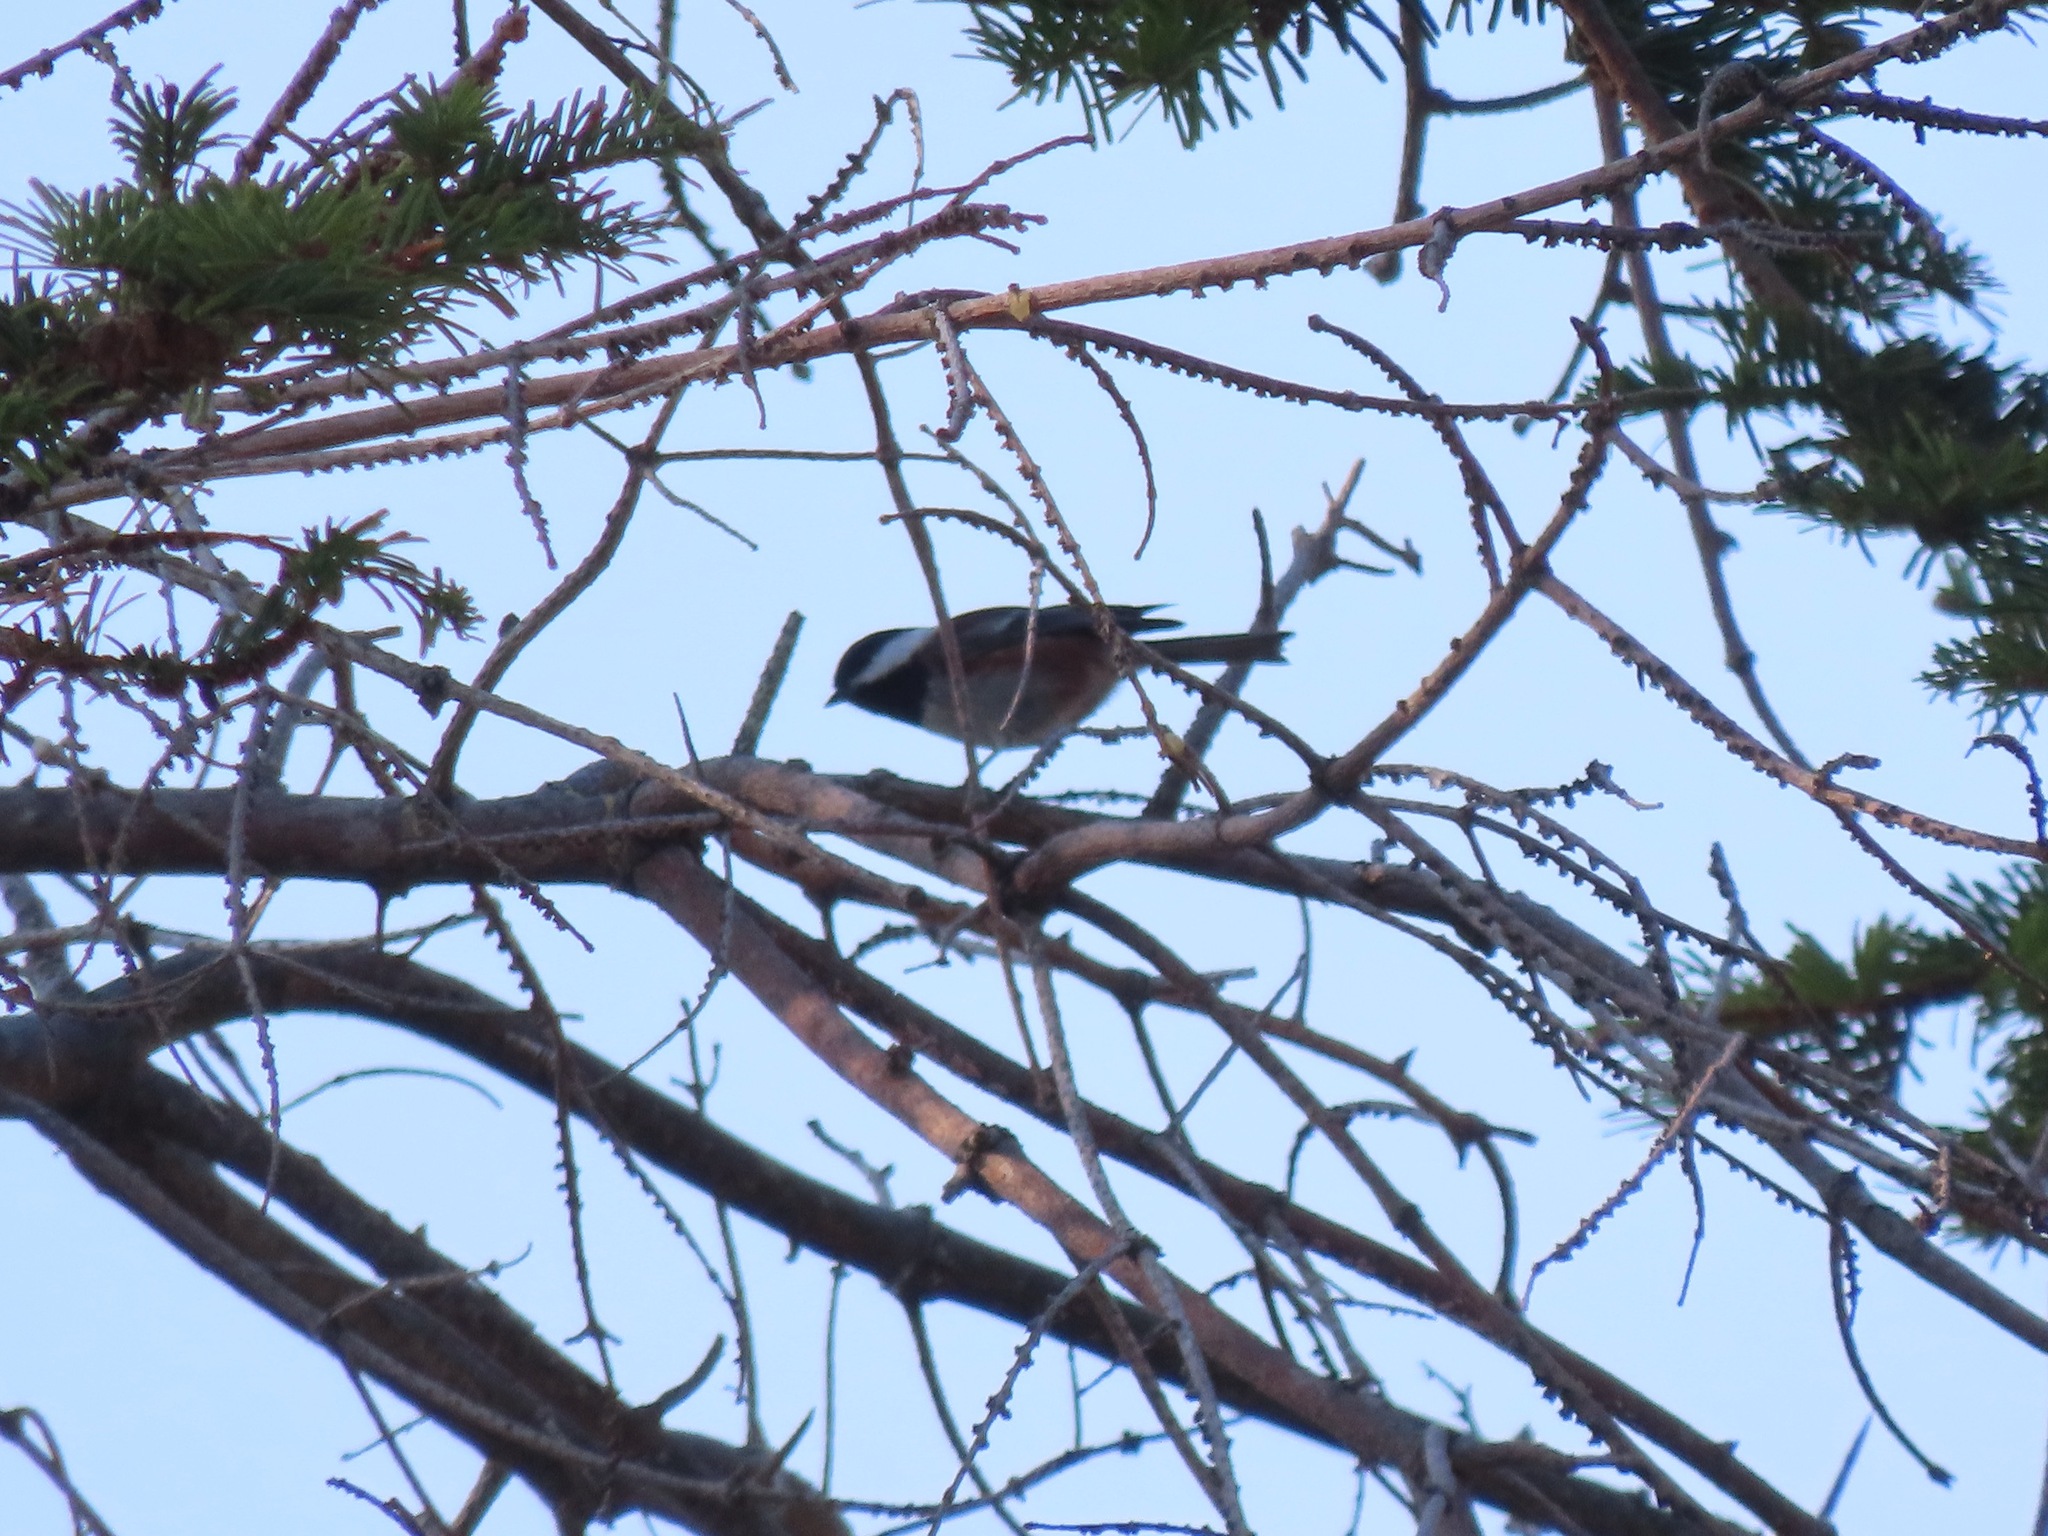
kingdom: Animalia
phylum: Chordata
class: Aves
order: Passeriformes
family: Paridae
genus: Poecile
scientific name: Poecile rufescens
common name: Chestnut-backed chickadee
